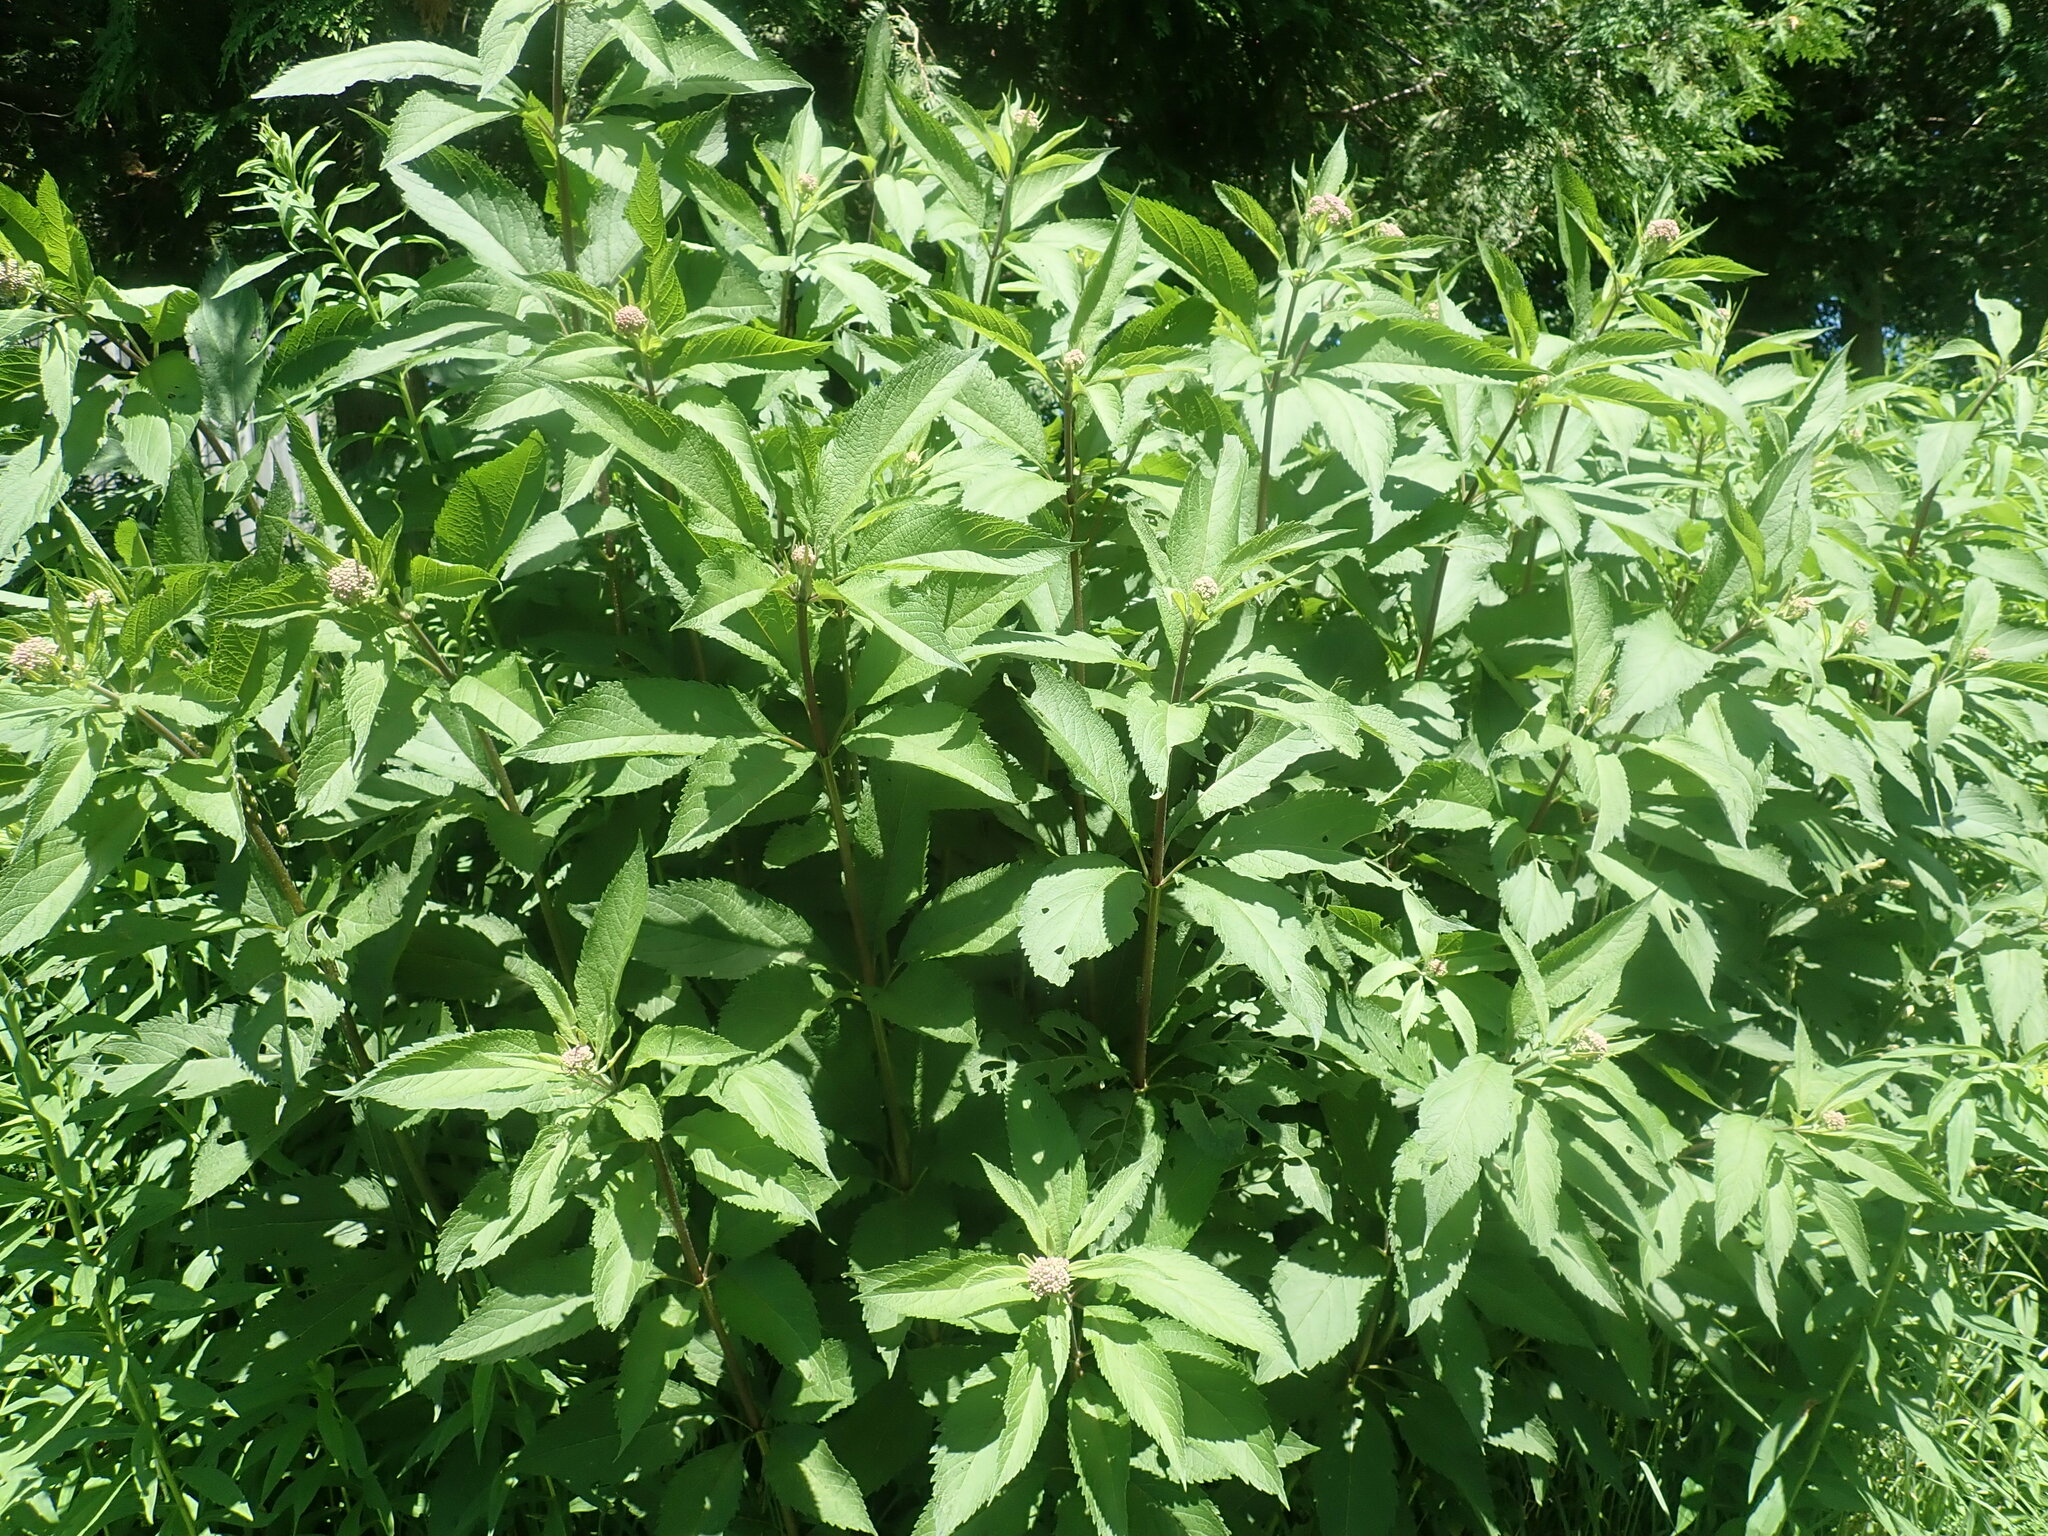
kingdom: Plantae
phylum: Tracheophyta
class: Magnoliopsida
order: Asterales
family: Asteraceae
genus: Eutrochium
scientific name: Eutrochium
